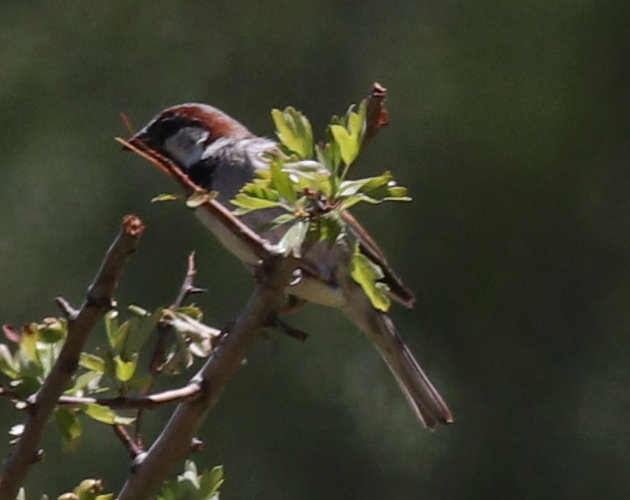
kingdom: Animalia
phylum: Chordata
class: Aves
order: Passeriformes
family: Passeridae
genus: Passer
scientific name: Passer domesticus
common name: House sparrow
